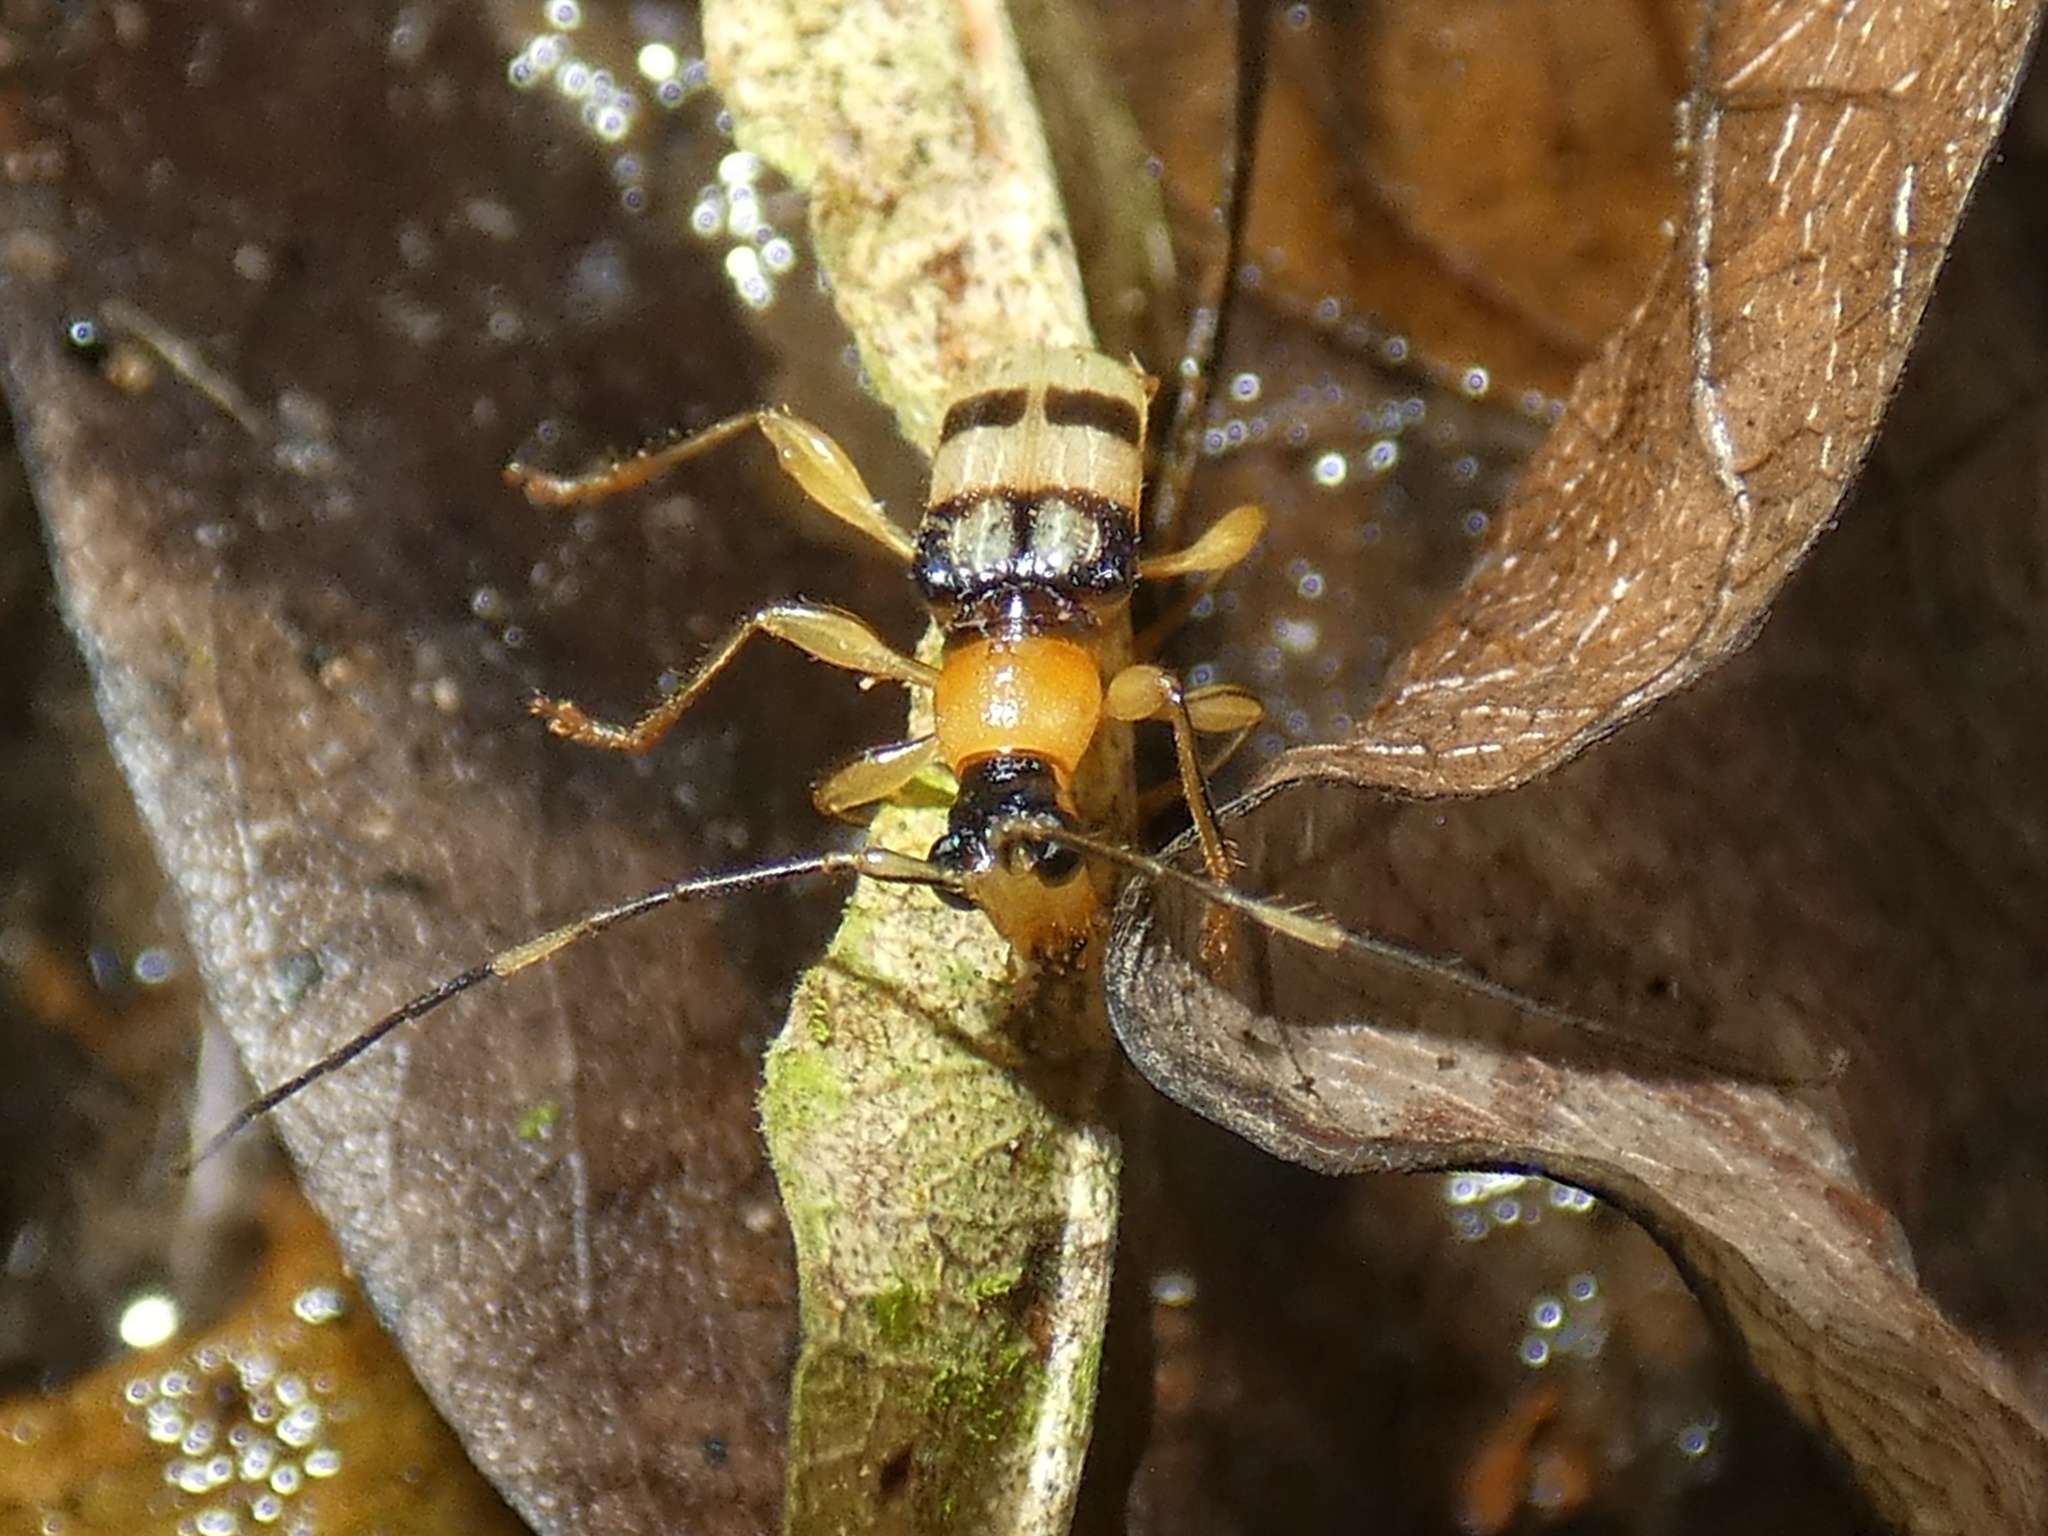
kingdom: Animalia
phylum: Arthropoda
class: Insecta
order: Coleoptera
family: Cerambycidae
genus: Oxylymma
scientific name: Oxylymma tuberculicollis
